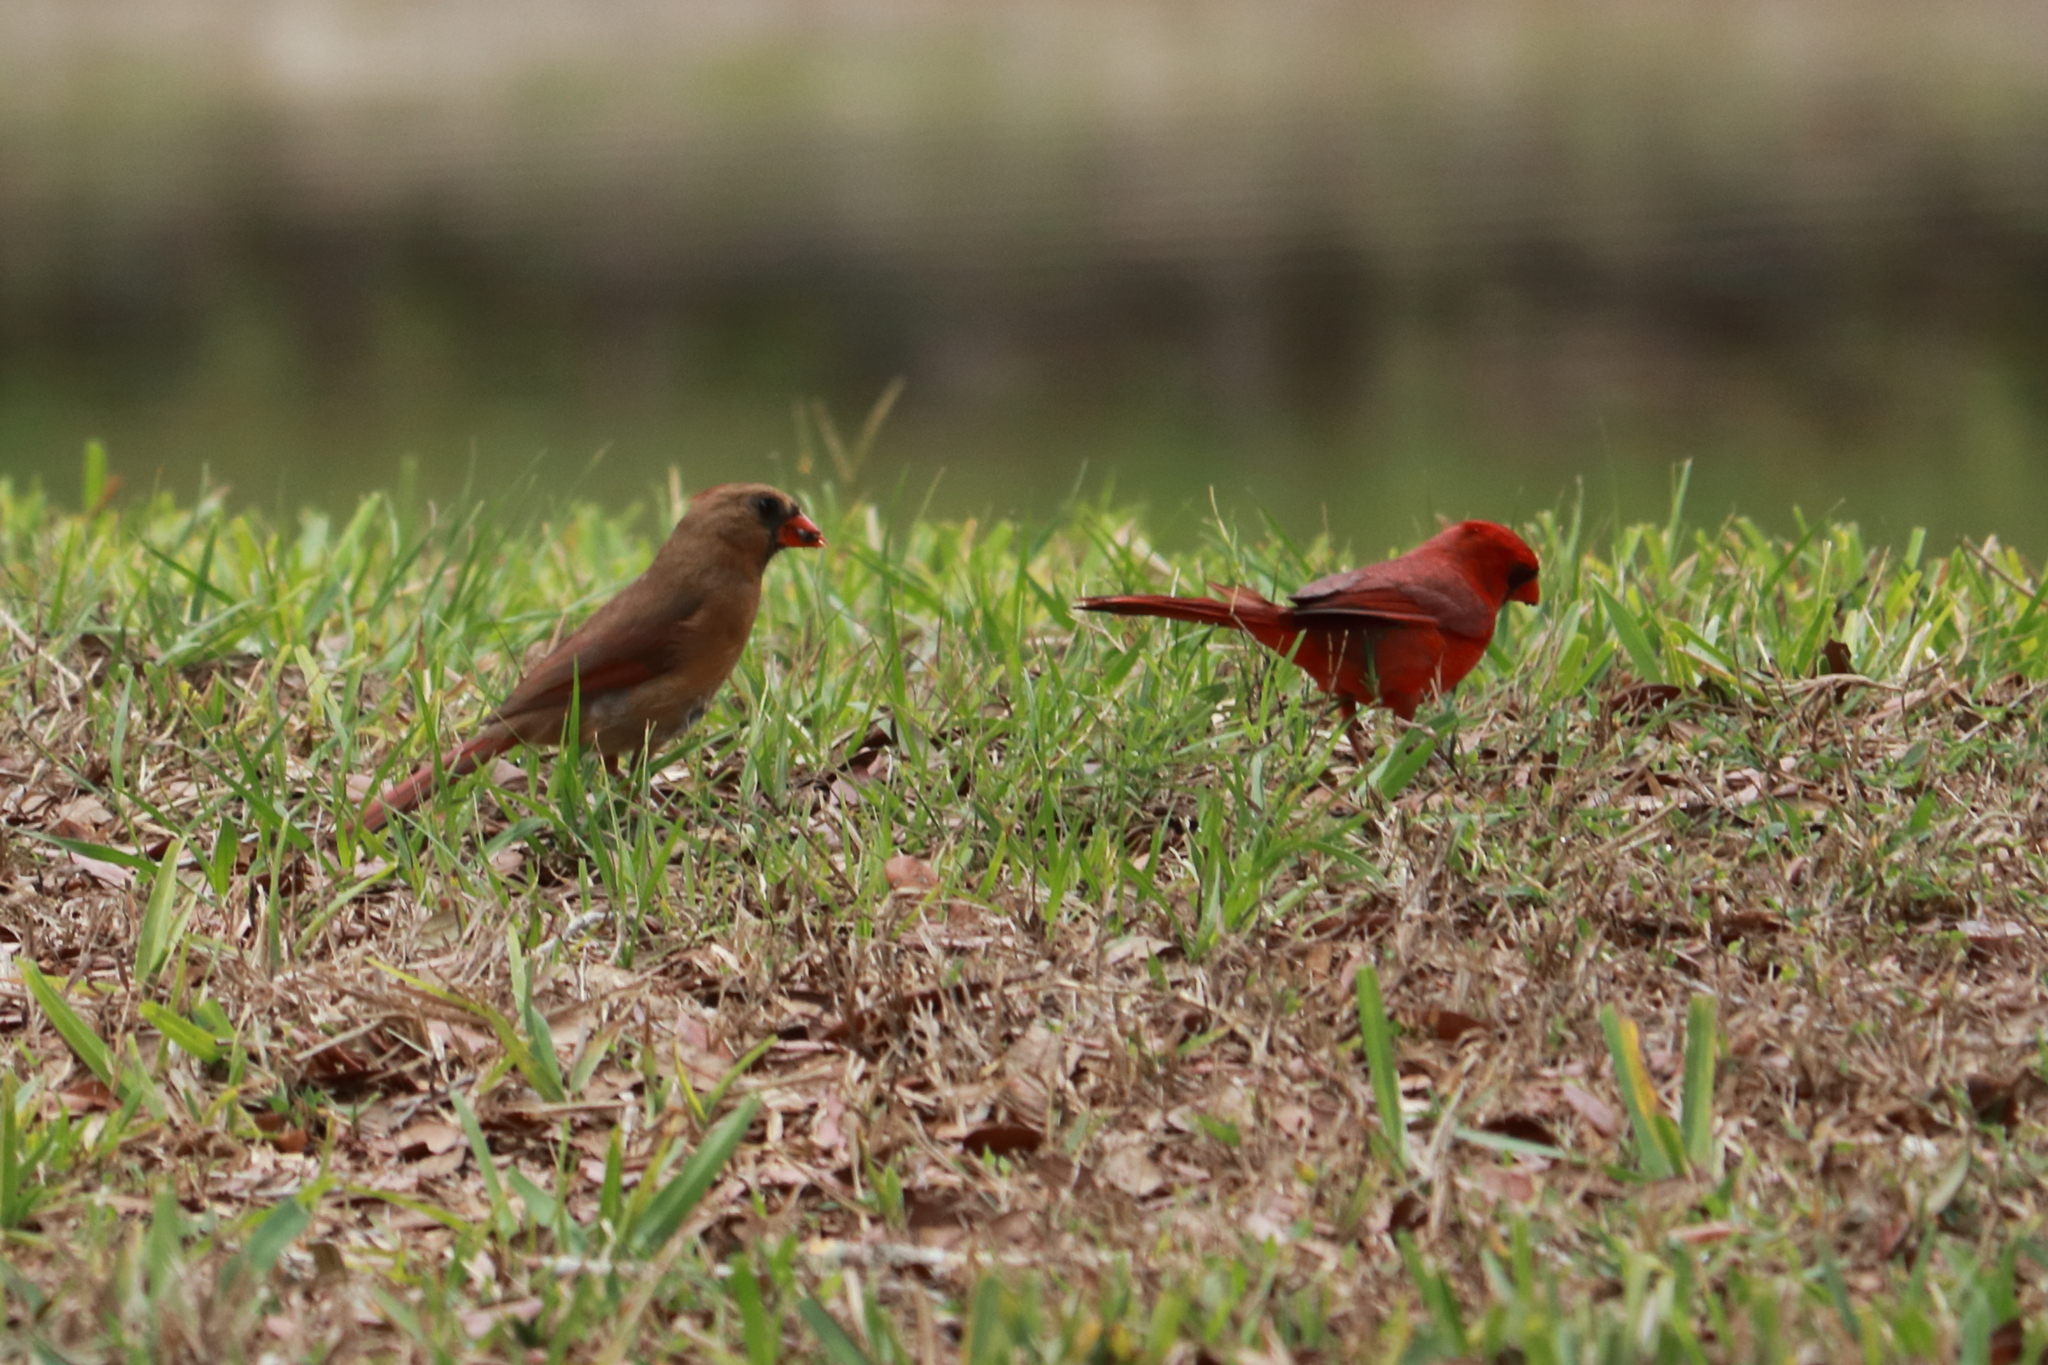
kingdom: Animalia
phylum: Chordata
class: Aves
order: Passeriformes
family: Cardinalidae
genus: Cardinalis
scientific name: Cardinalis cardinalis
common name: Northern cardinal
